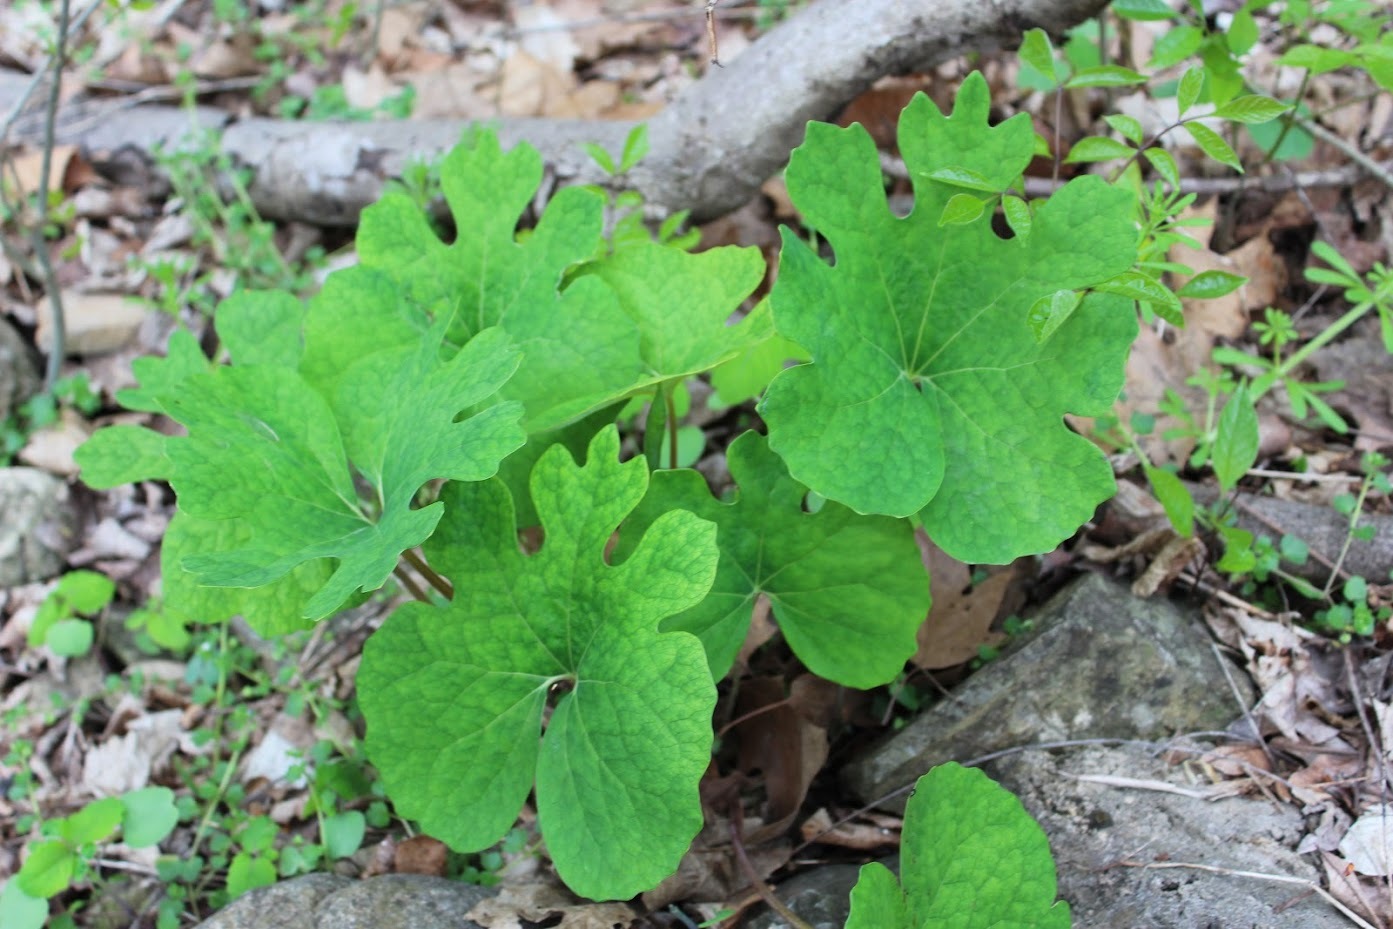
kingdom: Plantae
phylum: Tracheophyta
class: Magnoliopsida
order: Ranunculales
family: Papaveraceae
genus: Sanguinaria
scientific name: Sanguinaria canadensis
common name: Bloodroot
